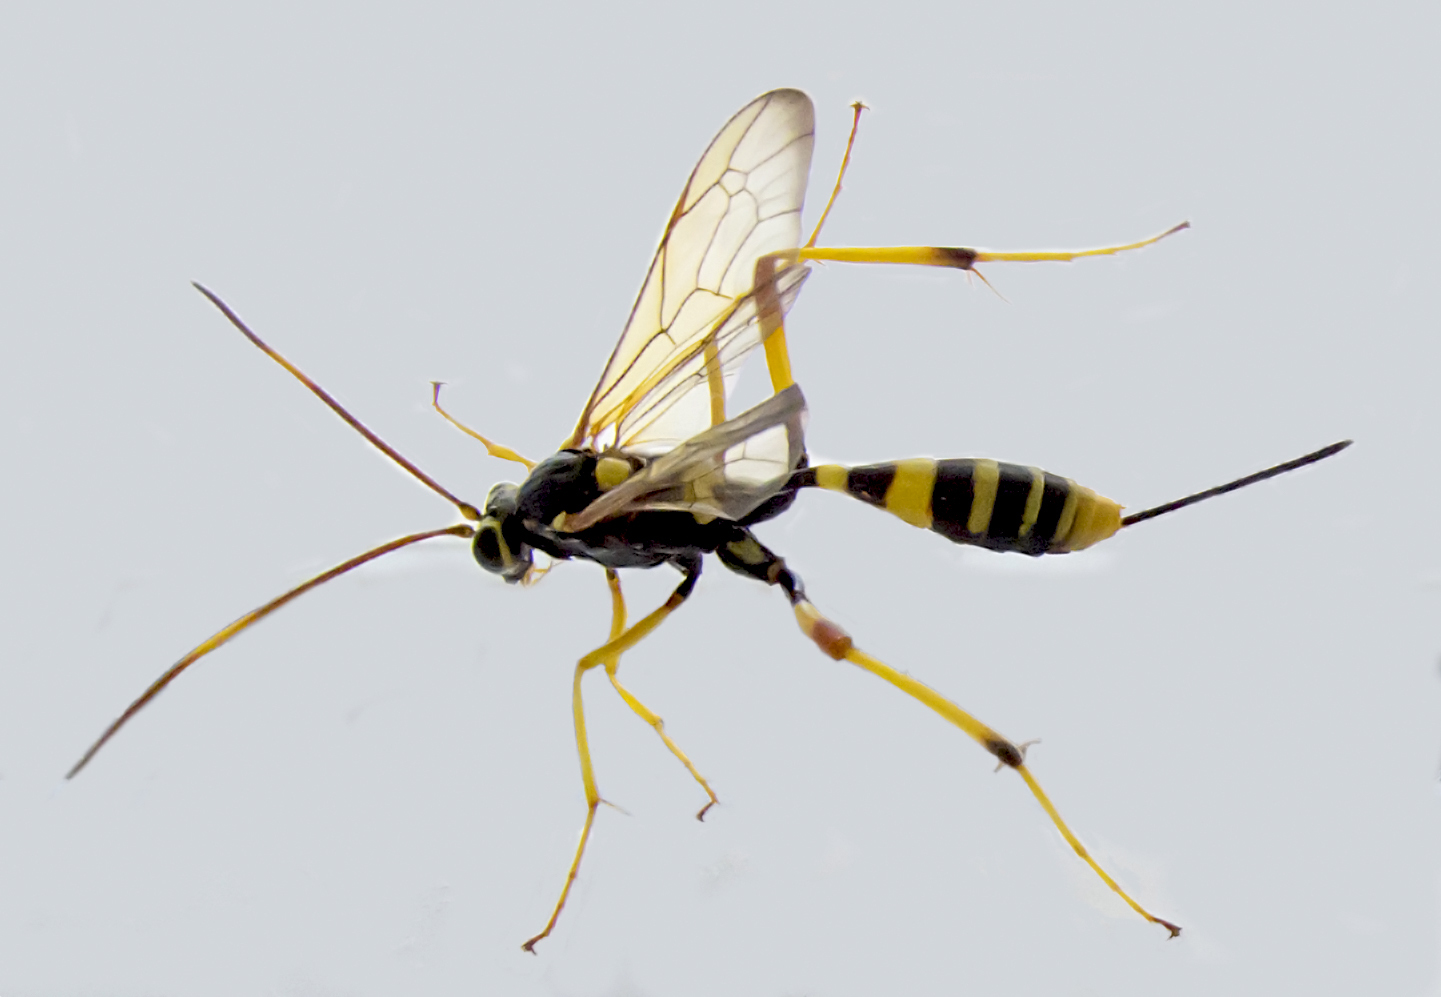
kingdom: Animalia
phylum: Arthropoda
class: Insecta
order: Hymenoptera
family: Ichneumonidae
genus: Acroricnus
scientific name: Acroricnus seductor
